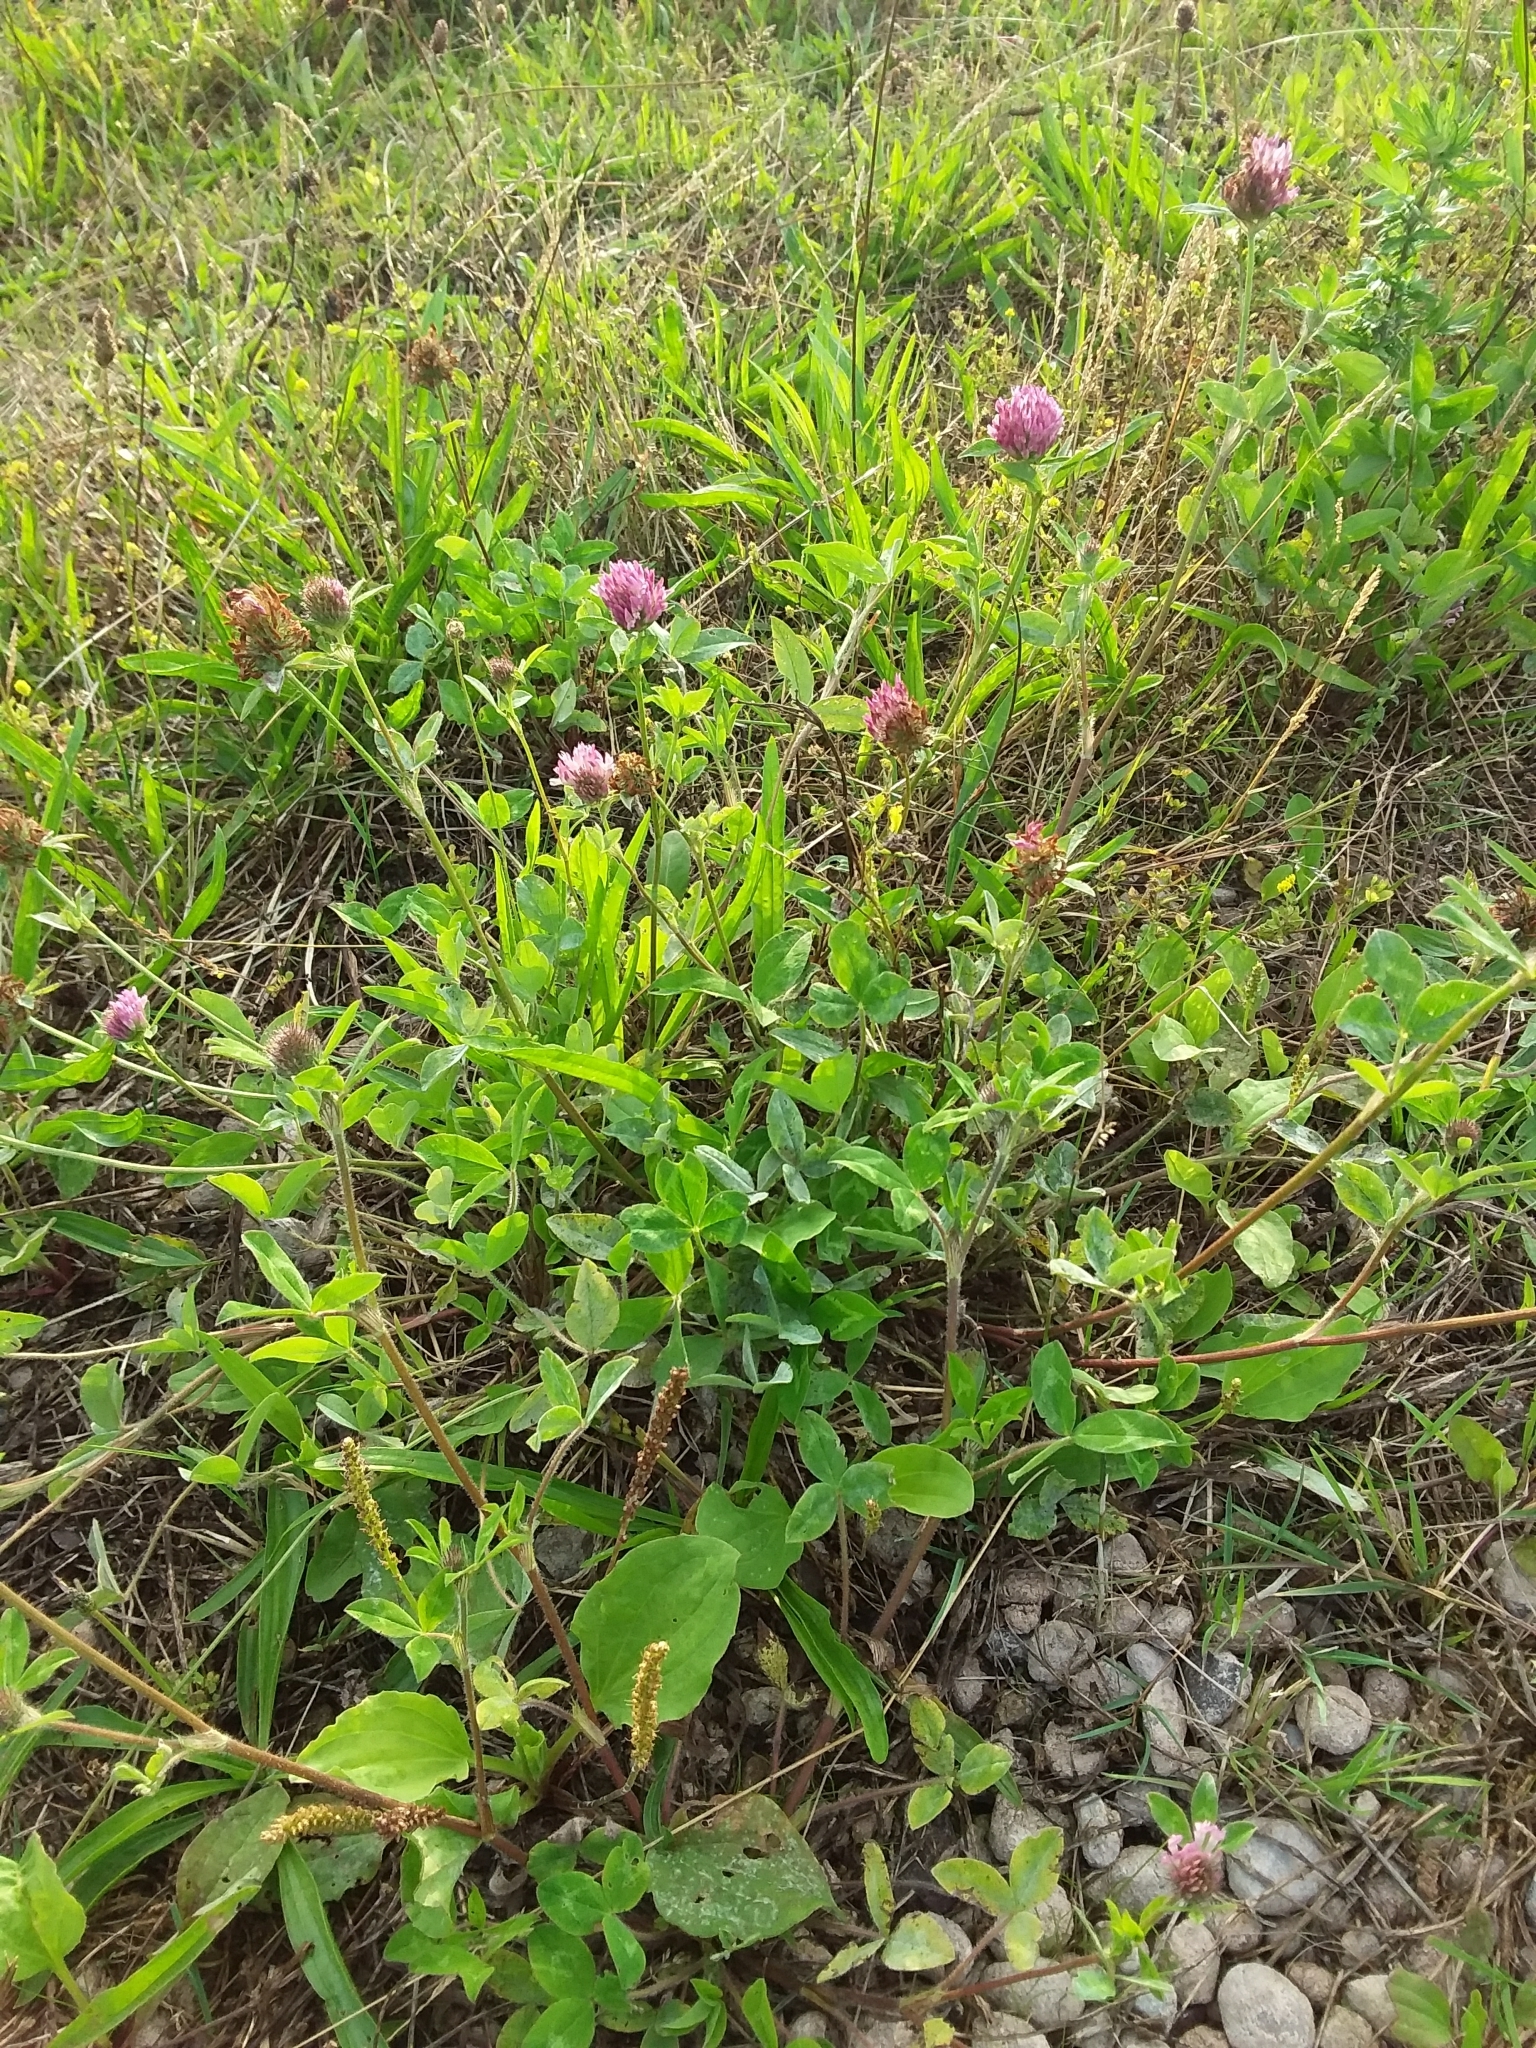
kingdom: Plantae
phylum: Tracheophyta
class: Magnoliopsida
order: Fabales
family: Fabaceae
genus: Trifolium
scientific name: Trifolium pratense
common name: Red clover
